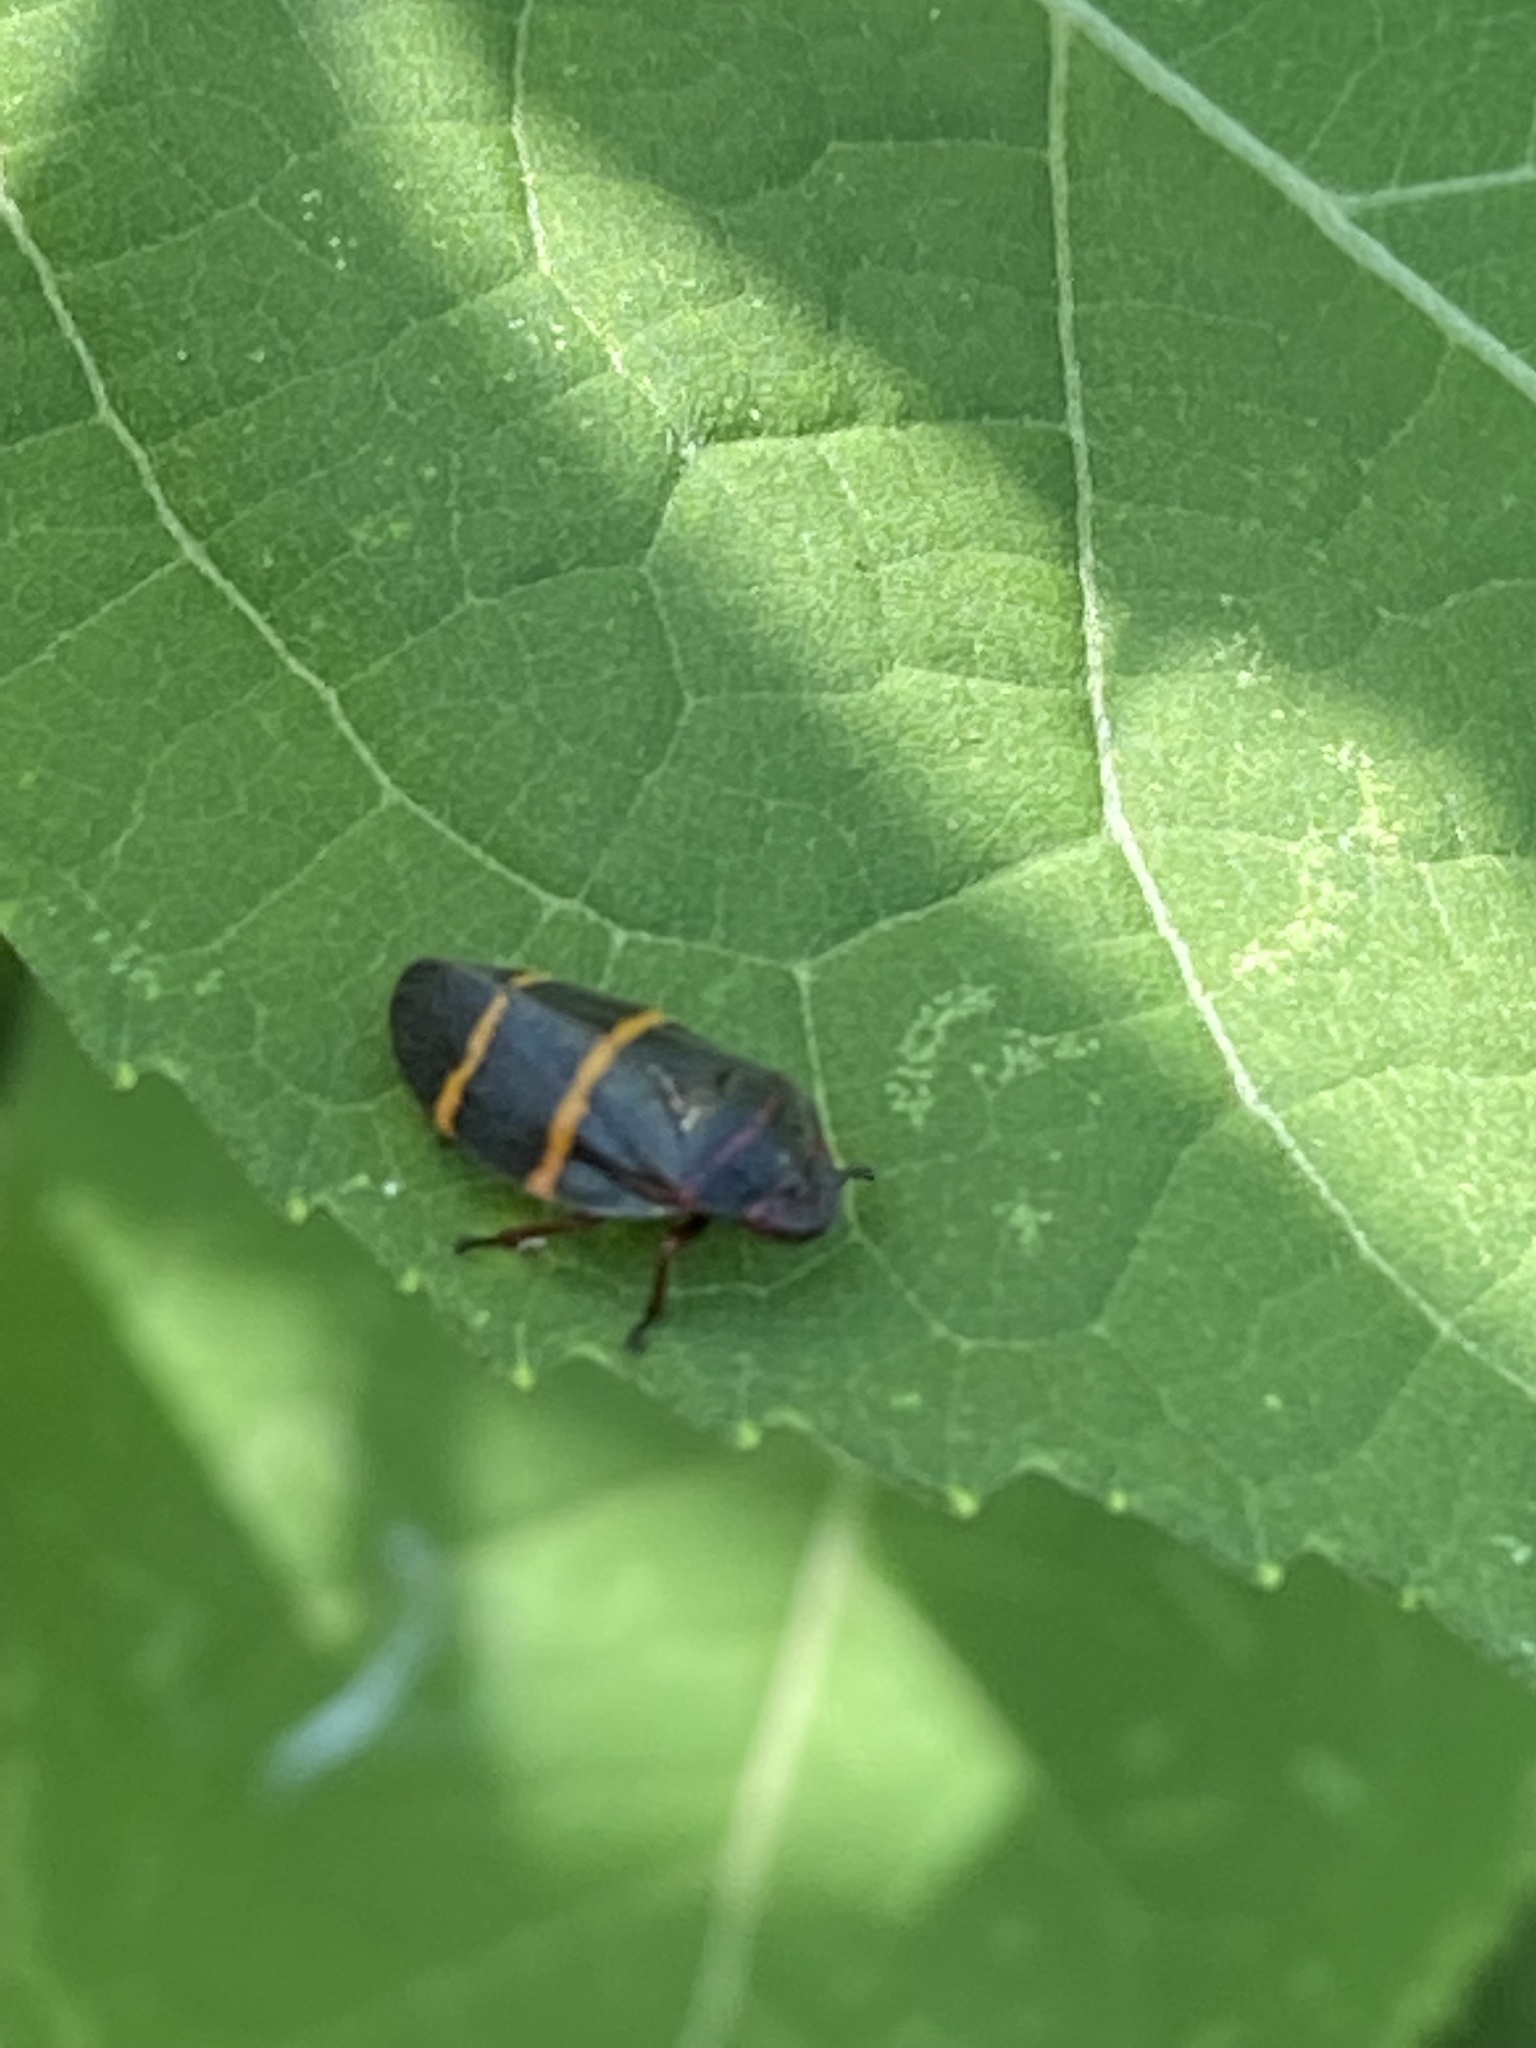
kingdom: Animalia
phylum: Arthropoda
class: Insecta
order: Hemiptera
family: Cercopidae
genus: Prosapia
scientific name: Prosapia bicincta
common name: Twolined spittlebug
